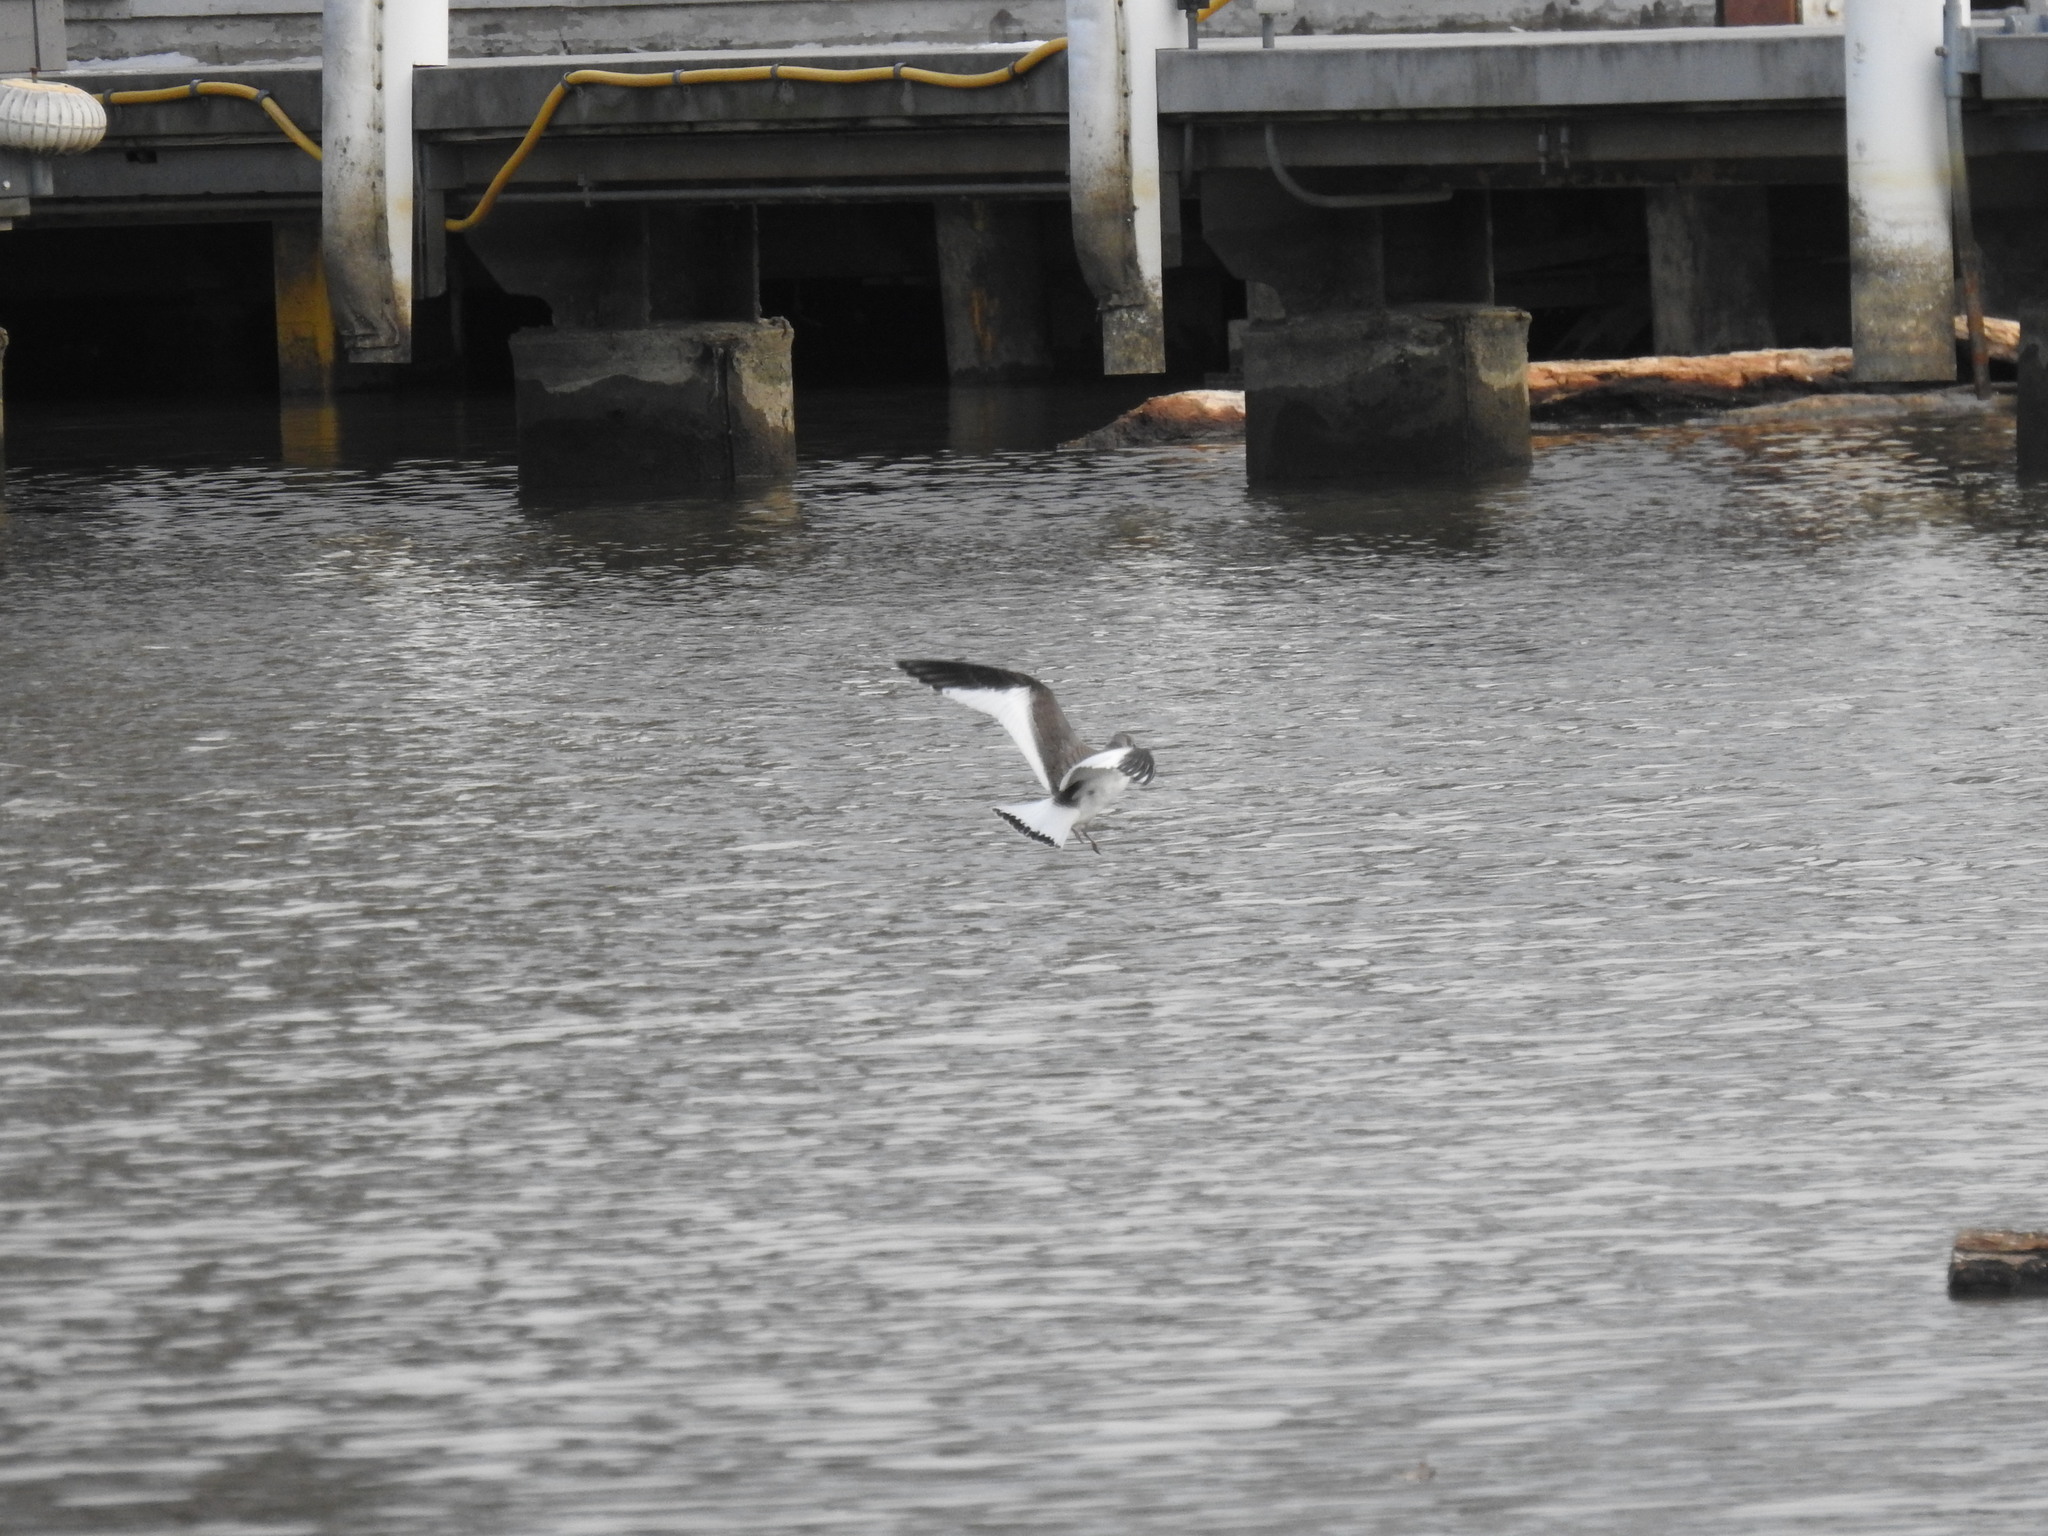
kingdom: Animalia
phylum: Chordata
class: Aves
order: Charadriiformes
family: Laridae
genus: Xema
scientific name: Xema sabini
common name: Sabine's gull
